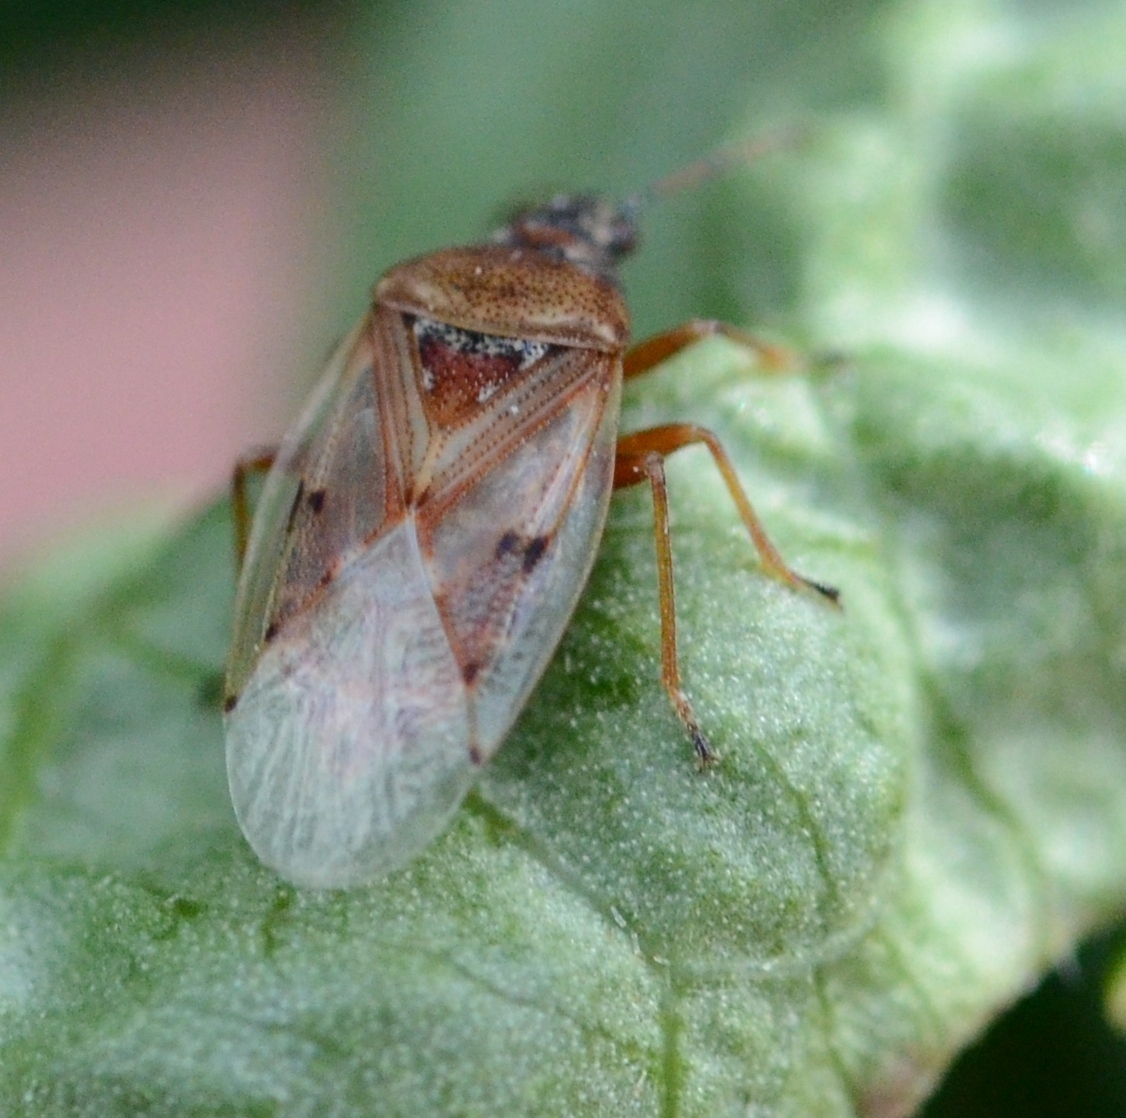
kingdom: Animalia
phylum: Arthropoda
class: Insecta
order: Hemiptera
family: Lygaeidae
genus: Kleidocerys
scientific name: Kleidocerys resedae
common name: Birch catkin bug
